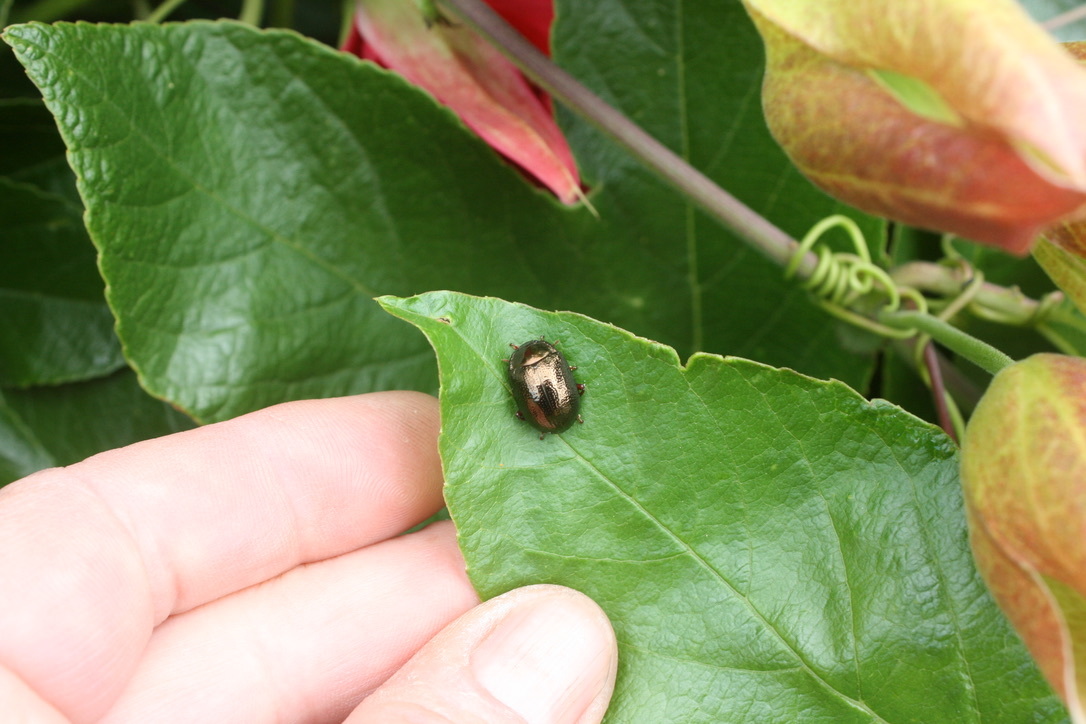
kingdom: Animalia
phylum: Arthropoda
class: Insecta
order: Coleoptera
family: Chrysomelidae
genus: Chrysolina
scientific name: Chrysolina bankii
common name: Leaf beetle
